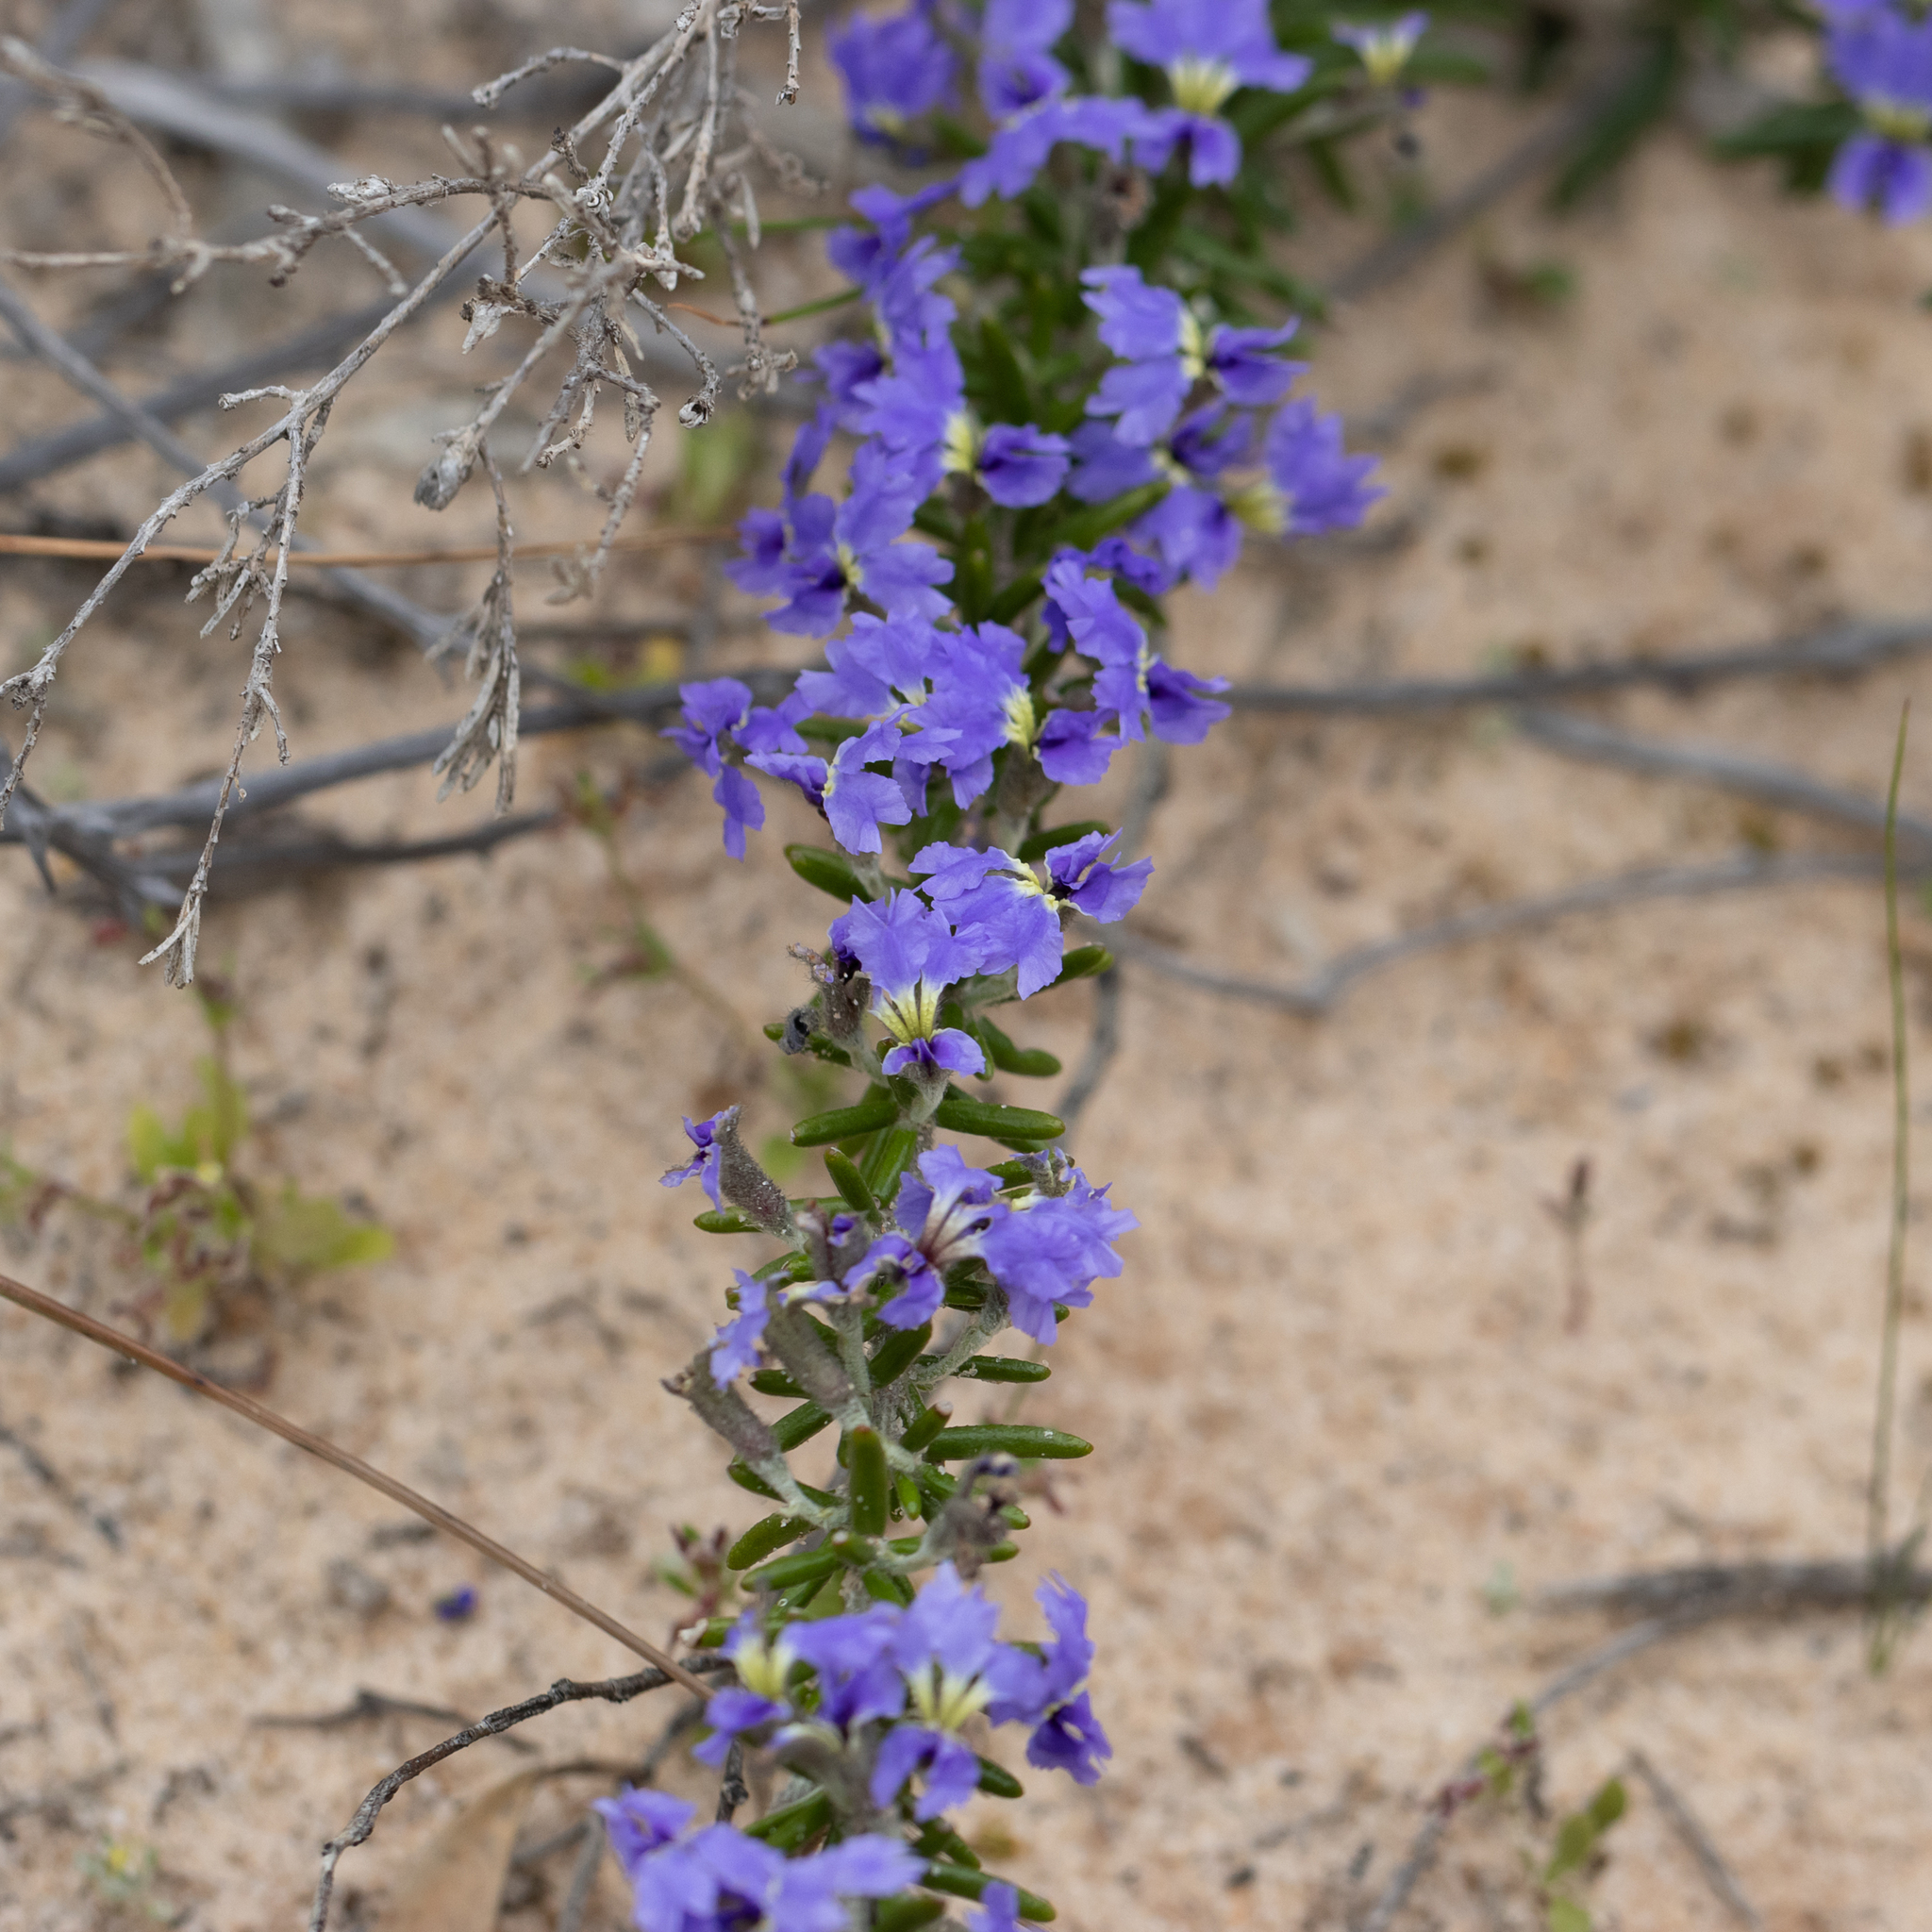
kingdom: Plantae
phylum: Tracheophyta
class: Magnoliopsida
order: Asterales
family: Goodeniaceae
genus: Dampiera
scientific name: Dampiera rosmarinifolia
